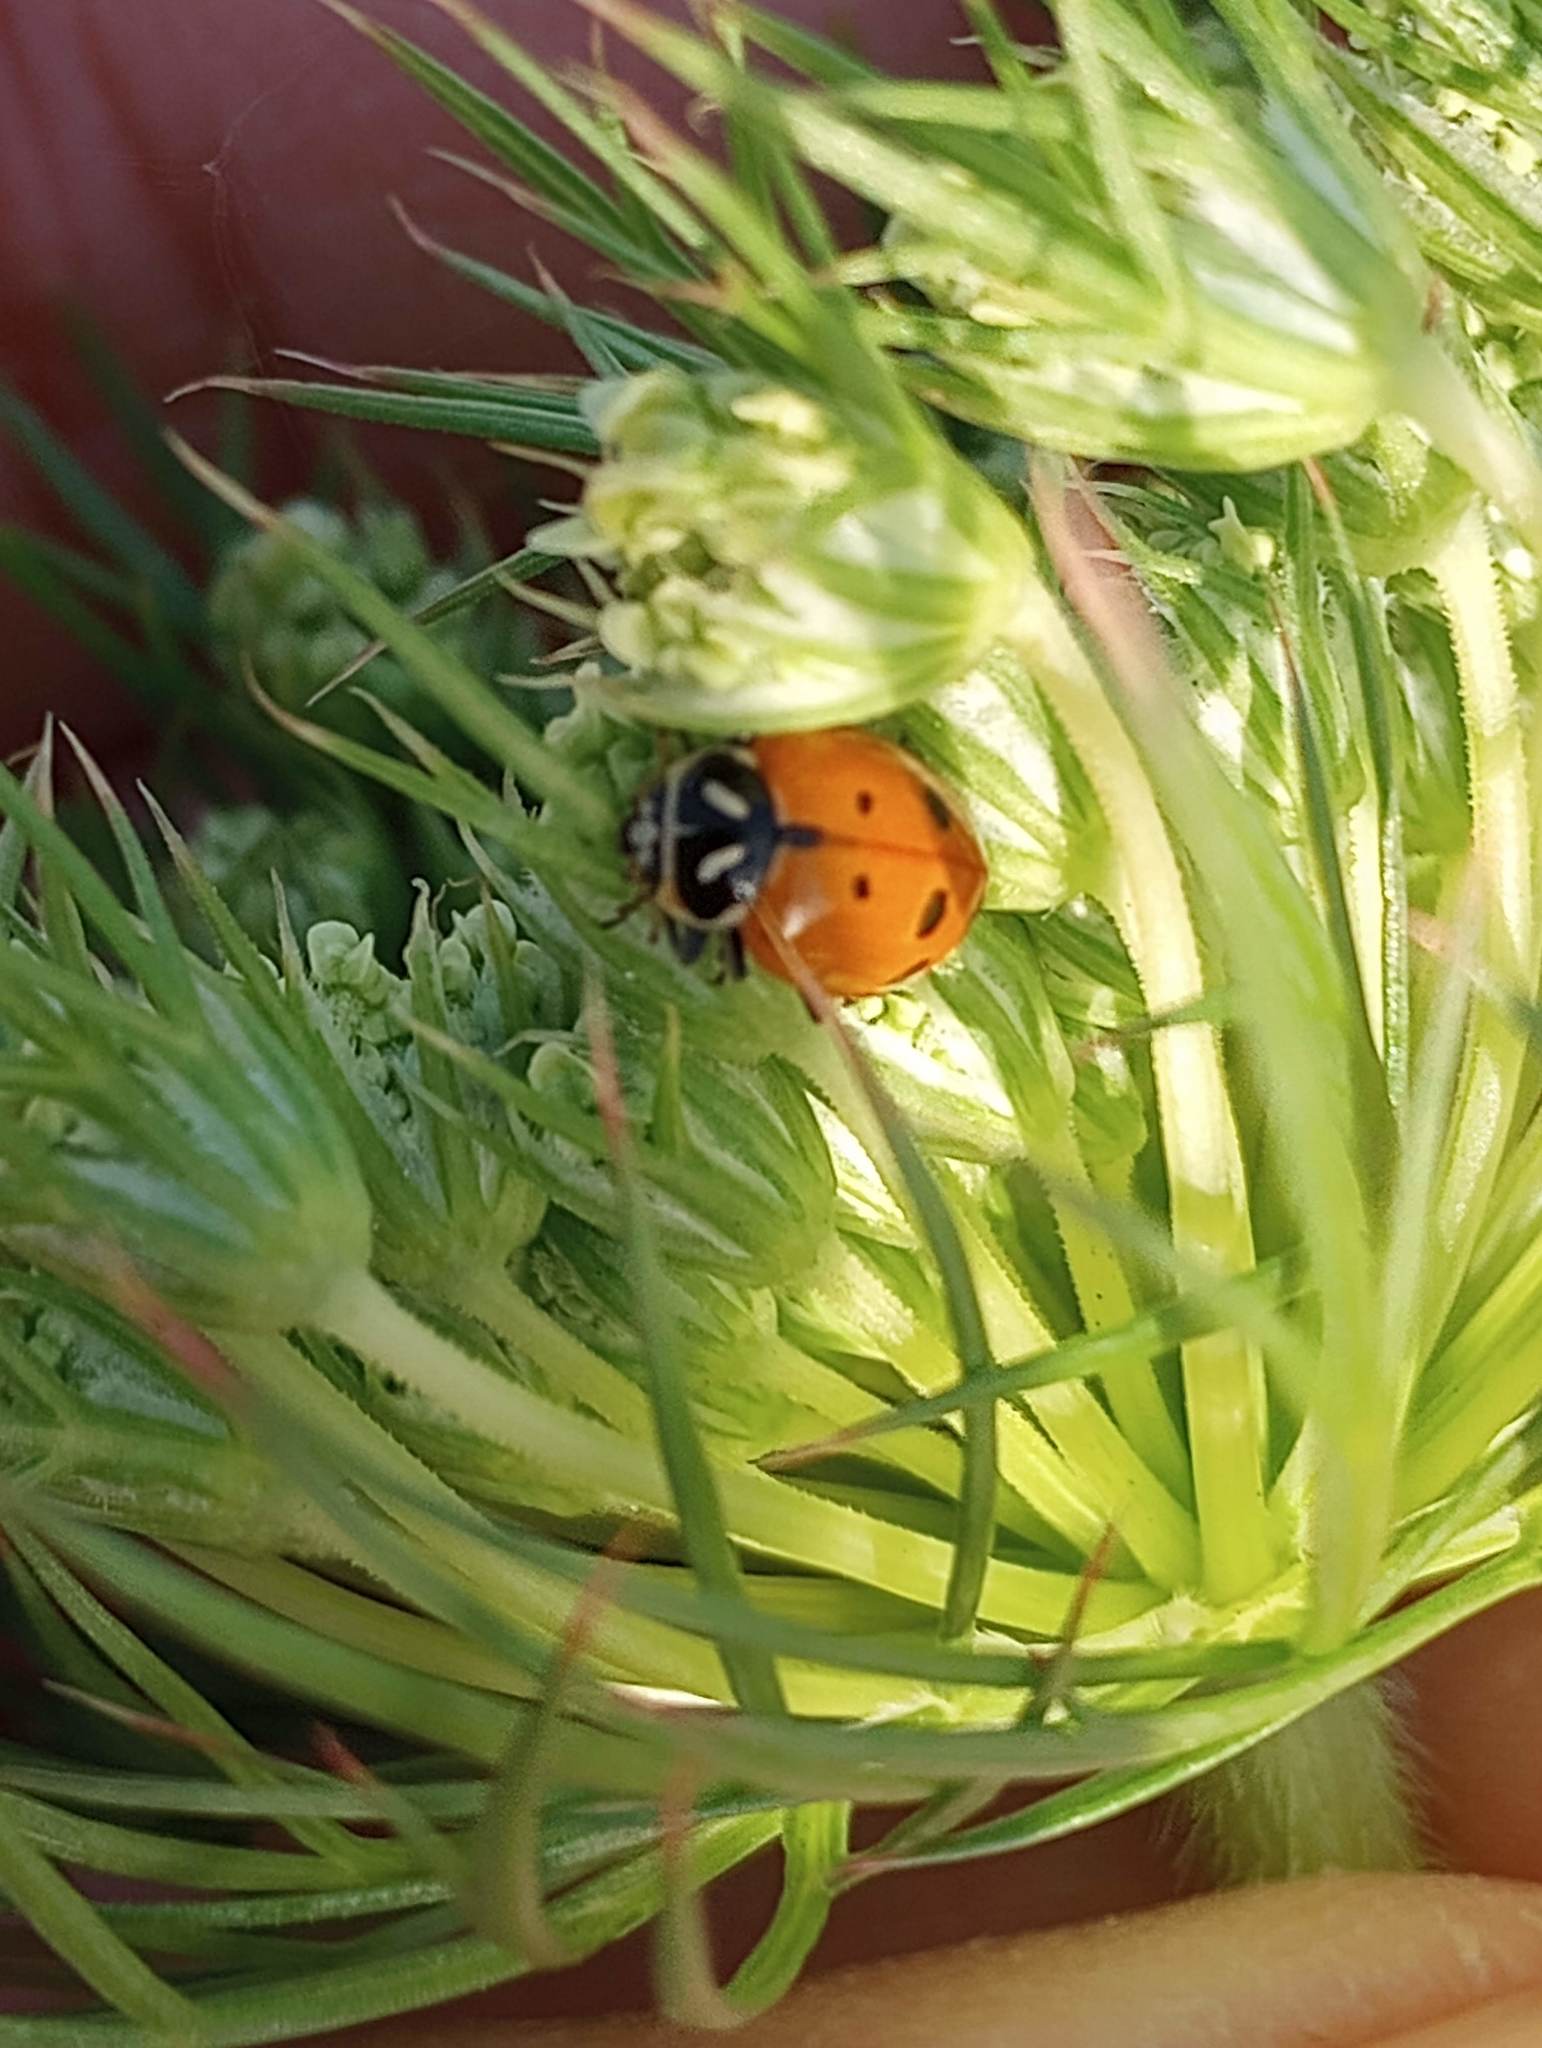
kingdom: Animalia
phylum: Arthropoda
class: Insecta
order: Coleoptera
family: Coccinellidae
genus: Hippodamia
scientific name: Hippodamia convergens
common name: Convergent lady beetle
